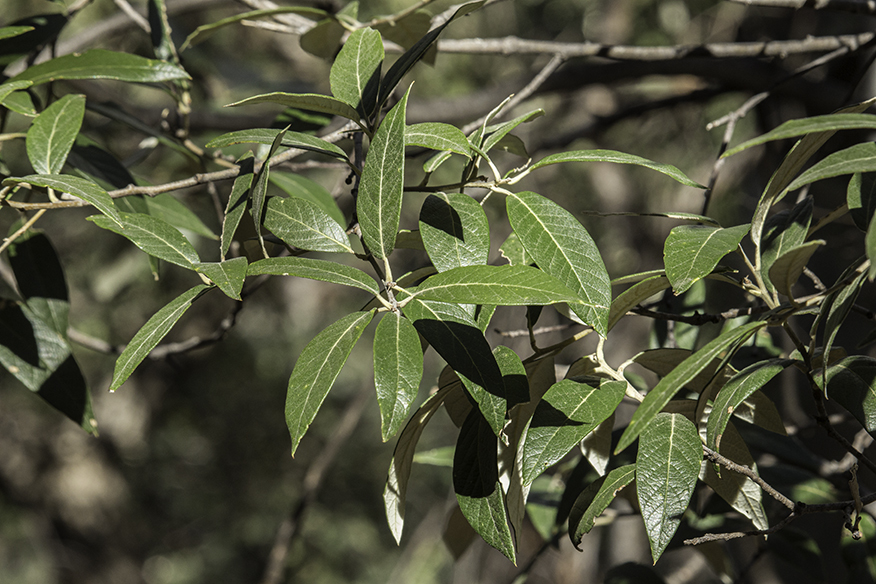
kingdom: Plantae
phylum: Tracheophyta
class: Magnoliopsida
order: Fagales
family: Fagaceae
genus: Quercus
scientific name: Quercus hypoleucoides
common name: Silverleaf oak
